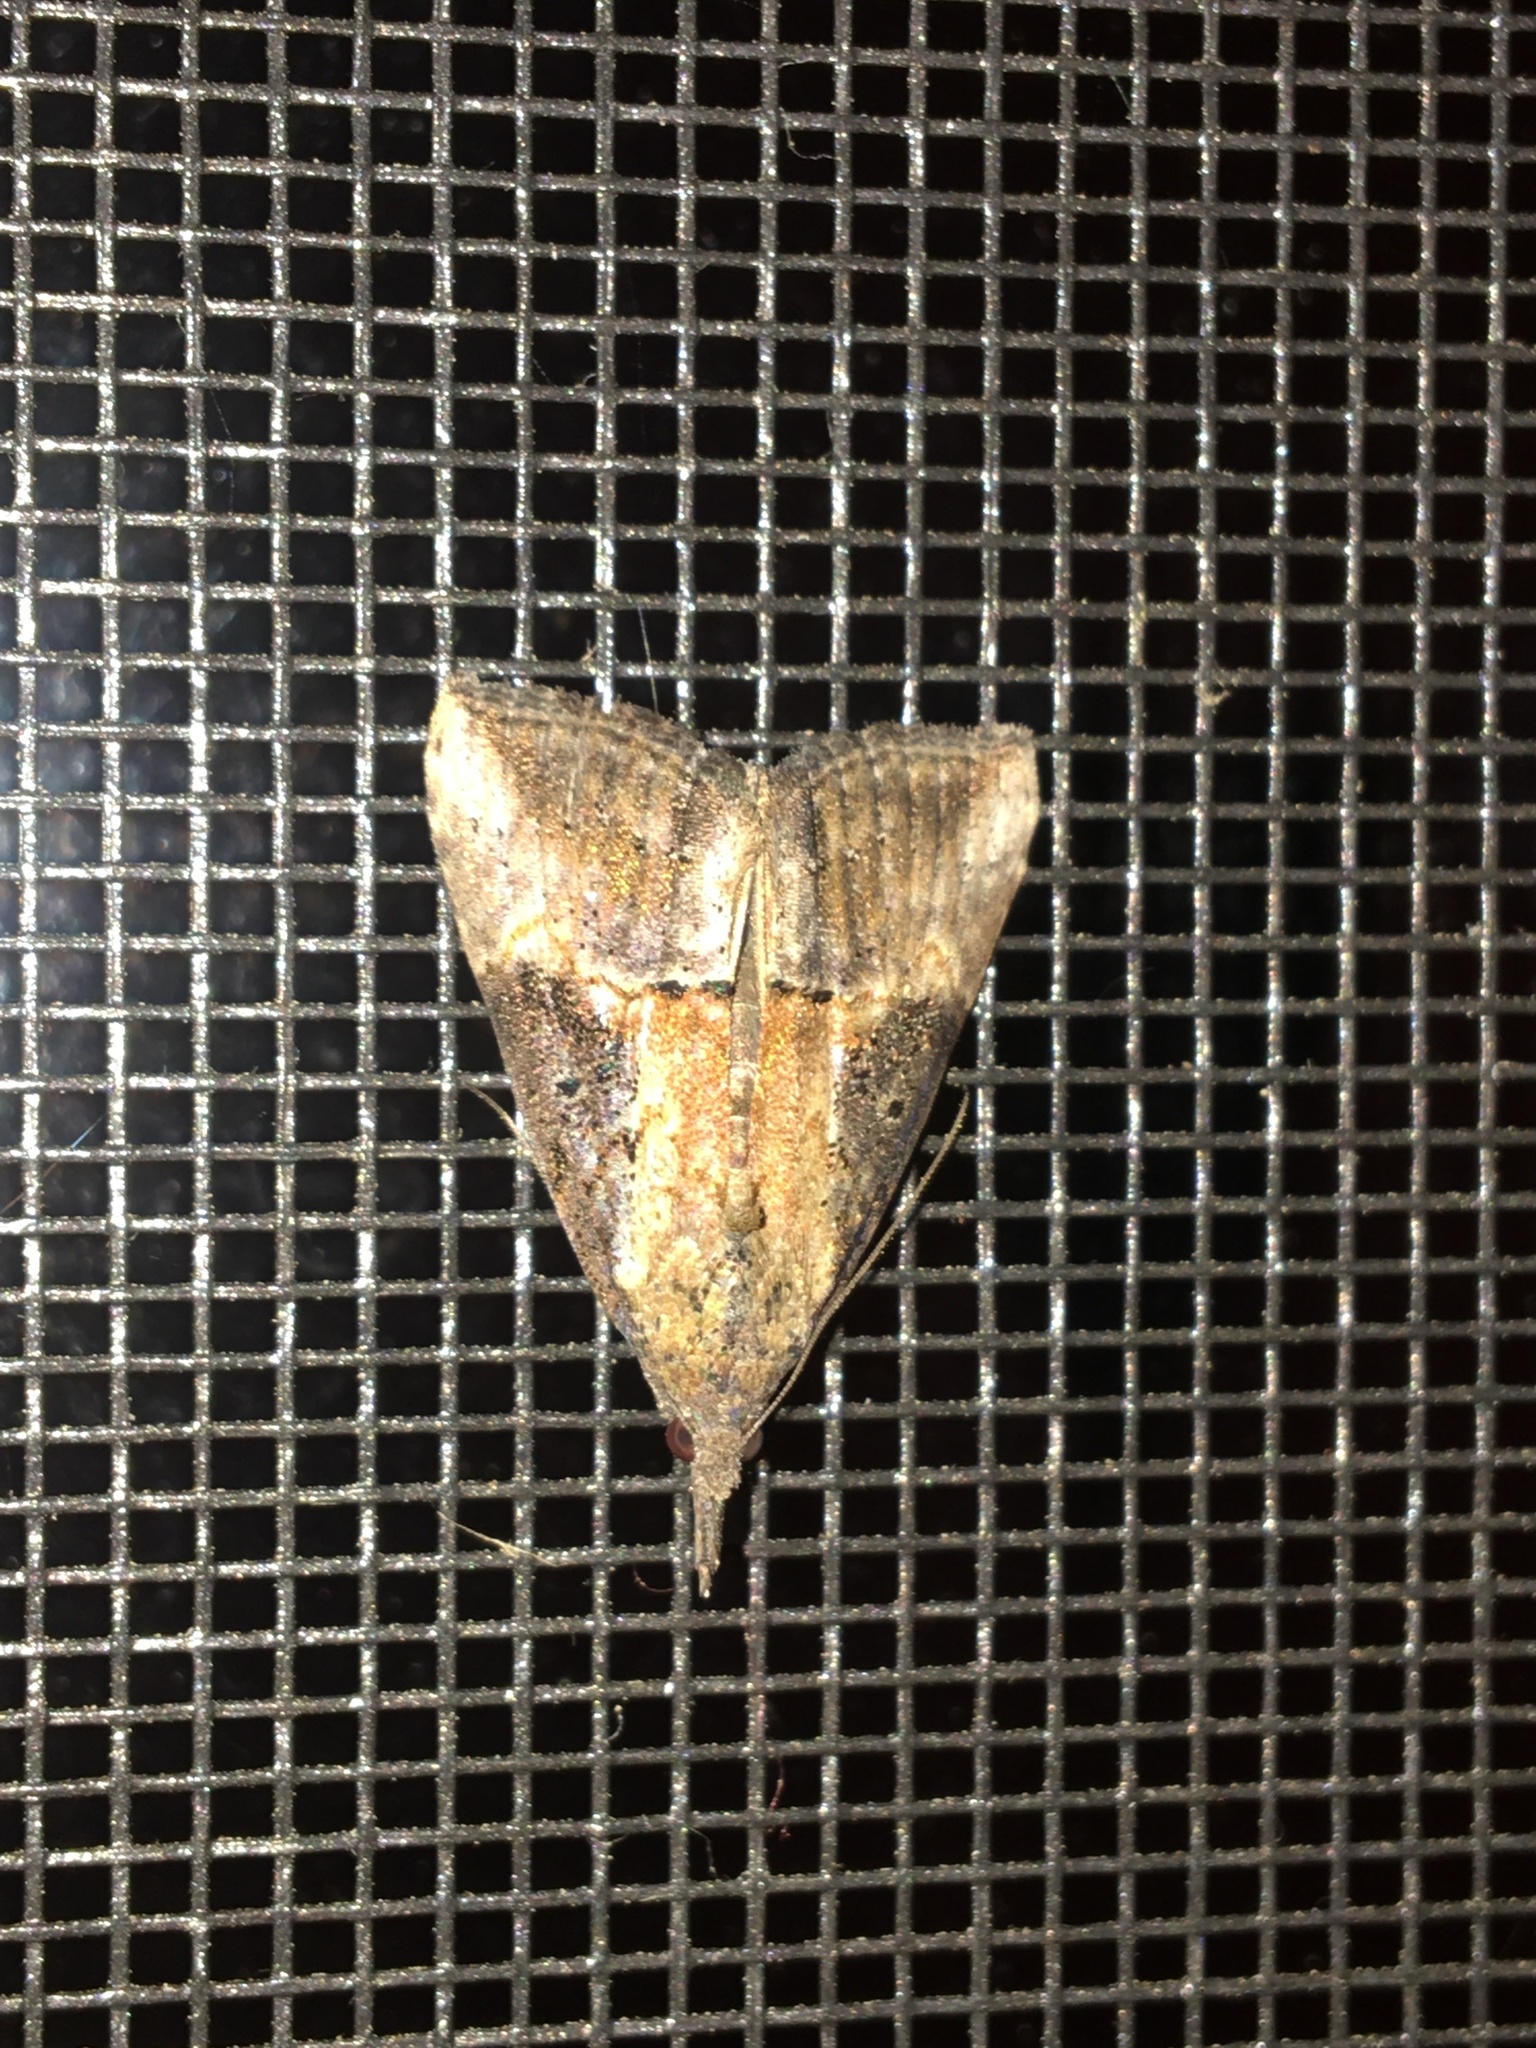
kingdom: Animalia
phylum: Arthropoda
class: Insecta
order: Lepidoptera
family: Erebidae
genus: Hypena
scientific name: Hypena scabra
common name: Green cloverworm
